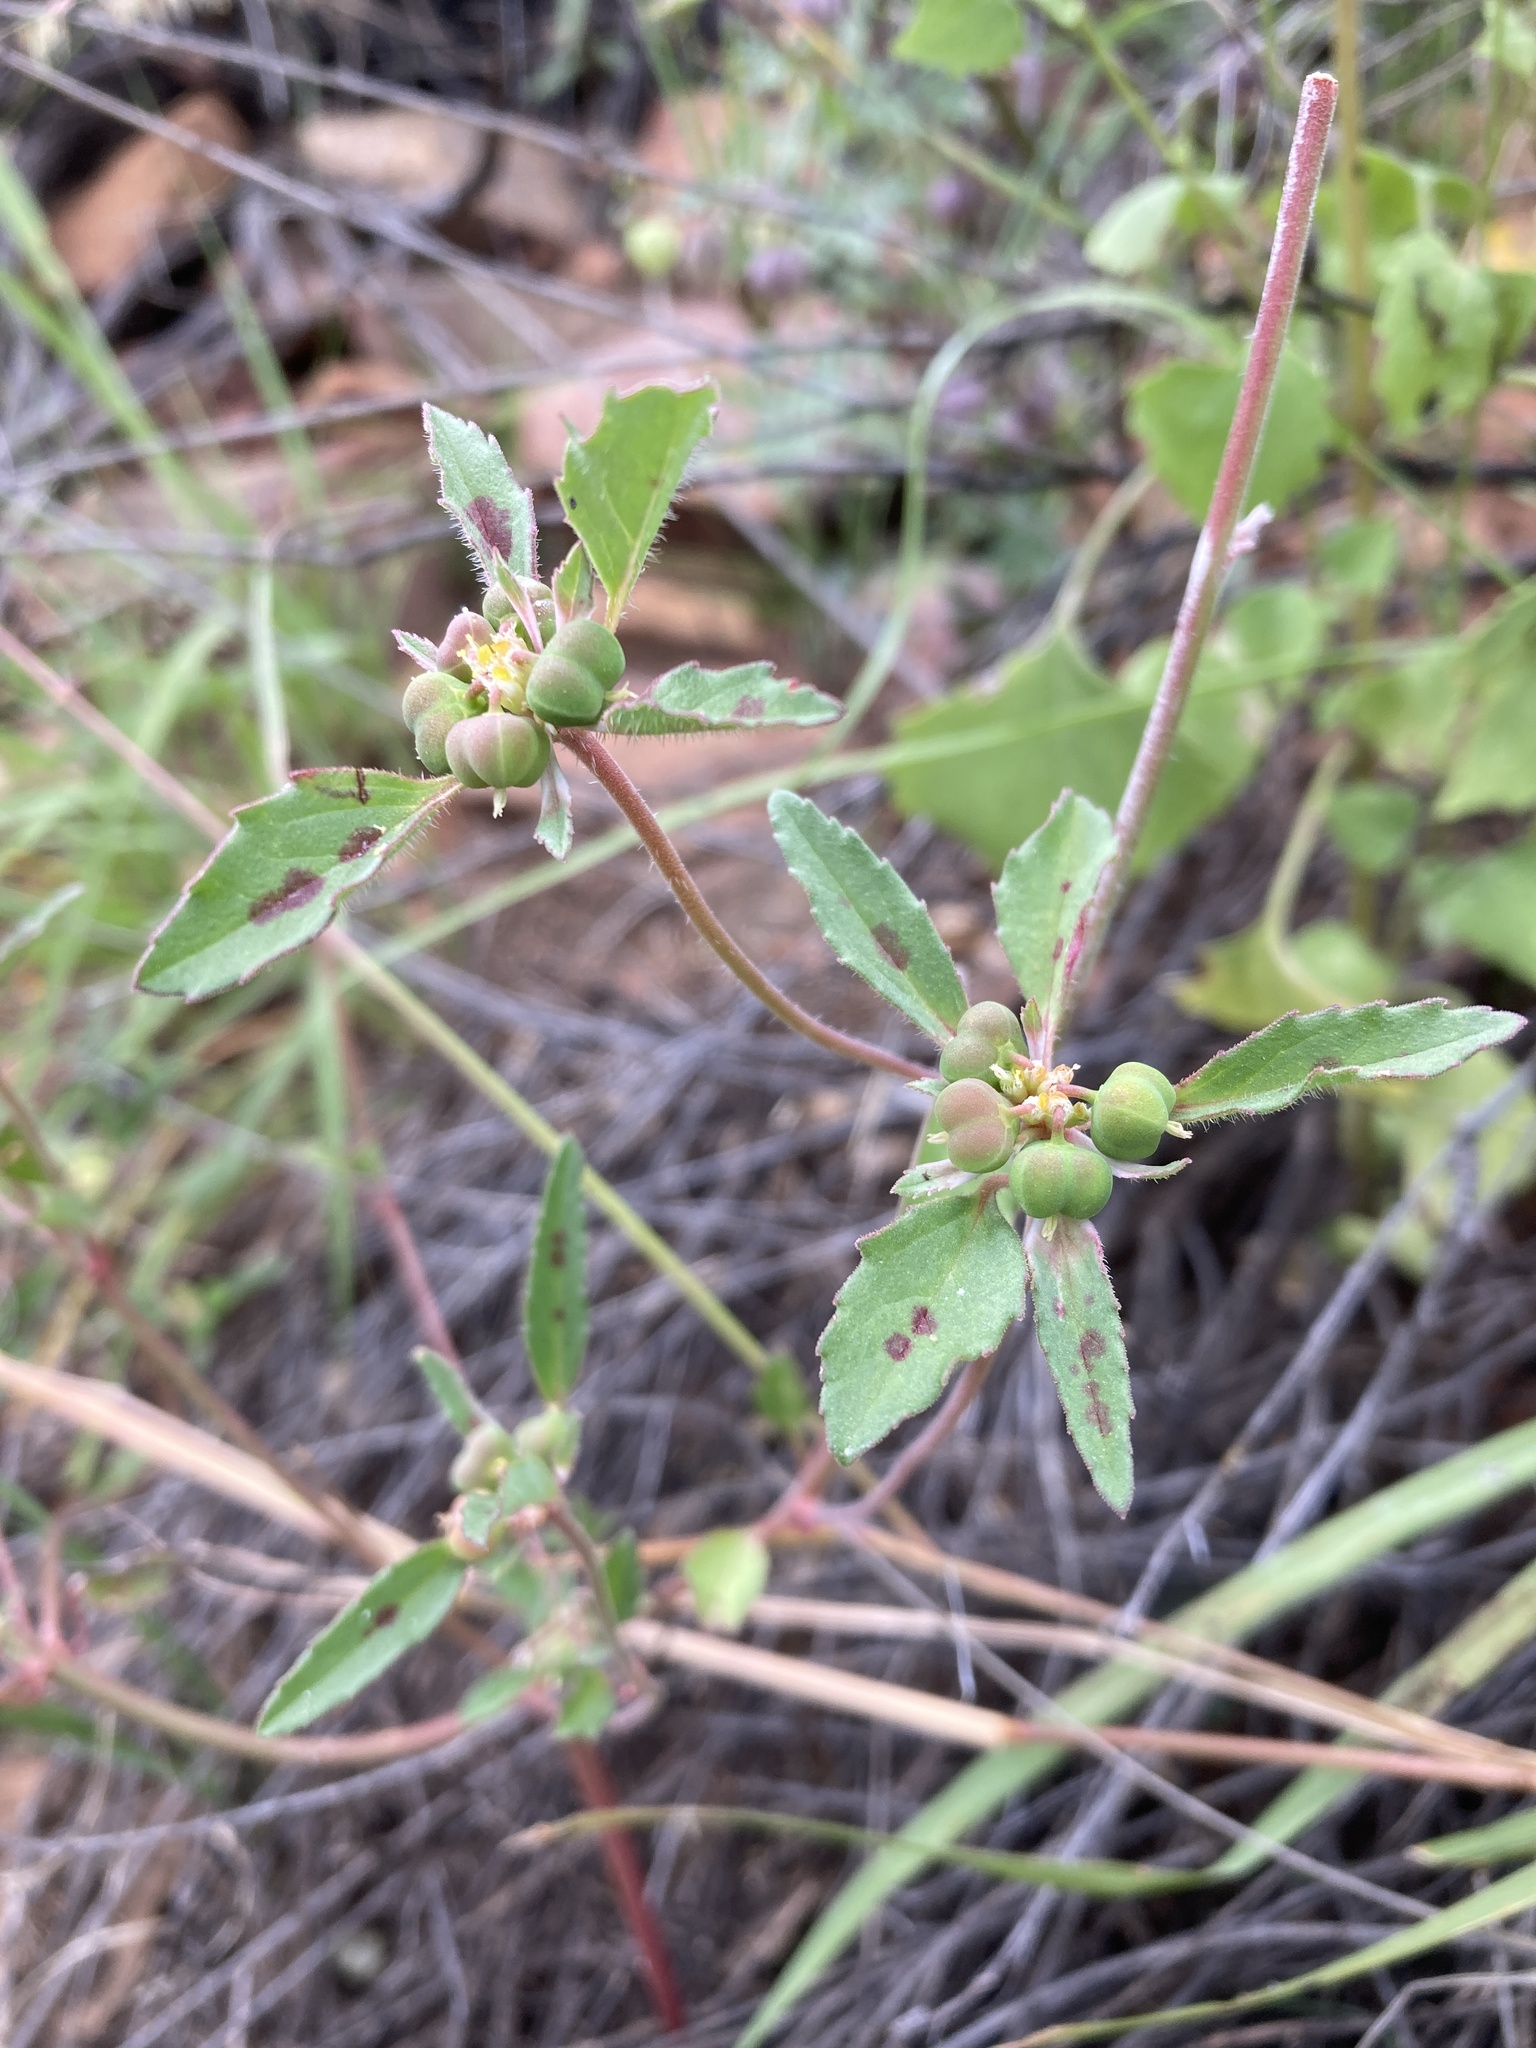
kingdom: Plantae
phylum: Tracheophyta
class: Magnoliopsida
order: Malpighiales
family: Euphorbiaceae
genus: Euphorbia
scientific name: Euphorbia davidii
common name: David's spurge
